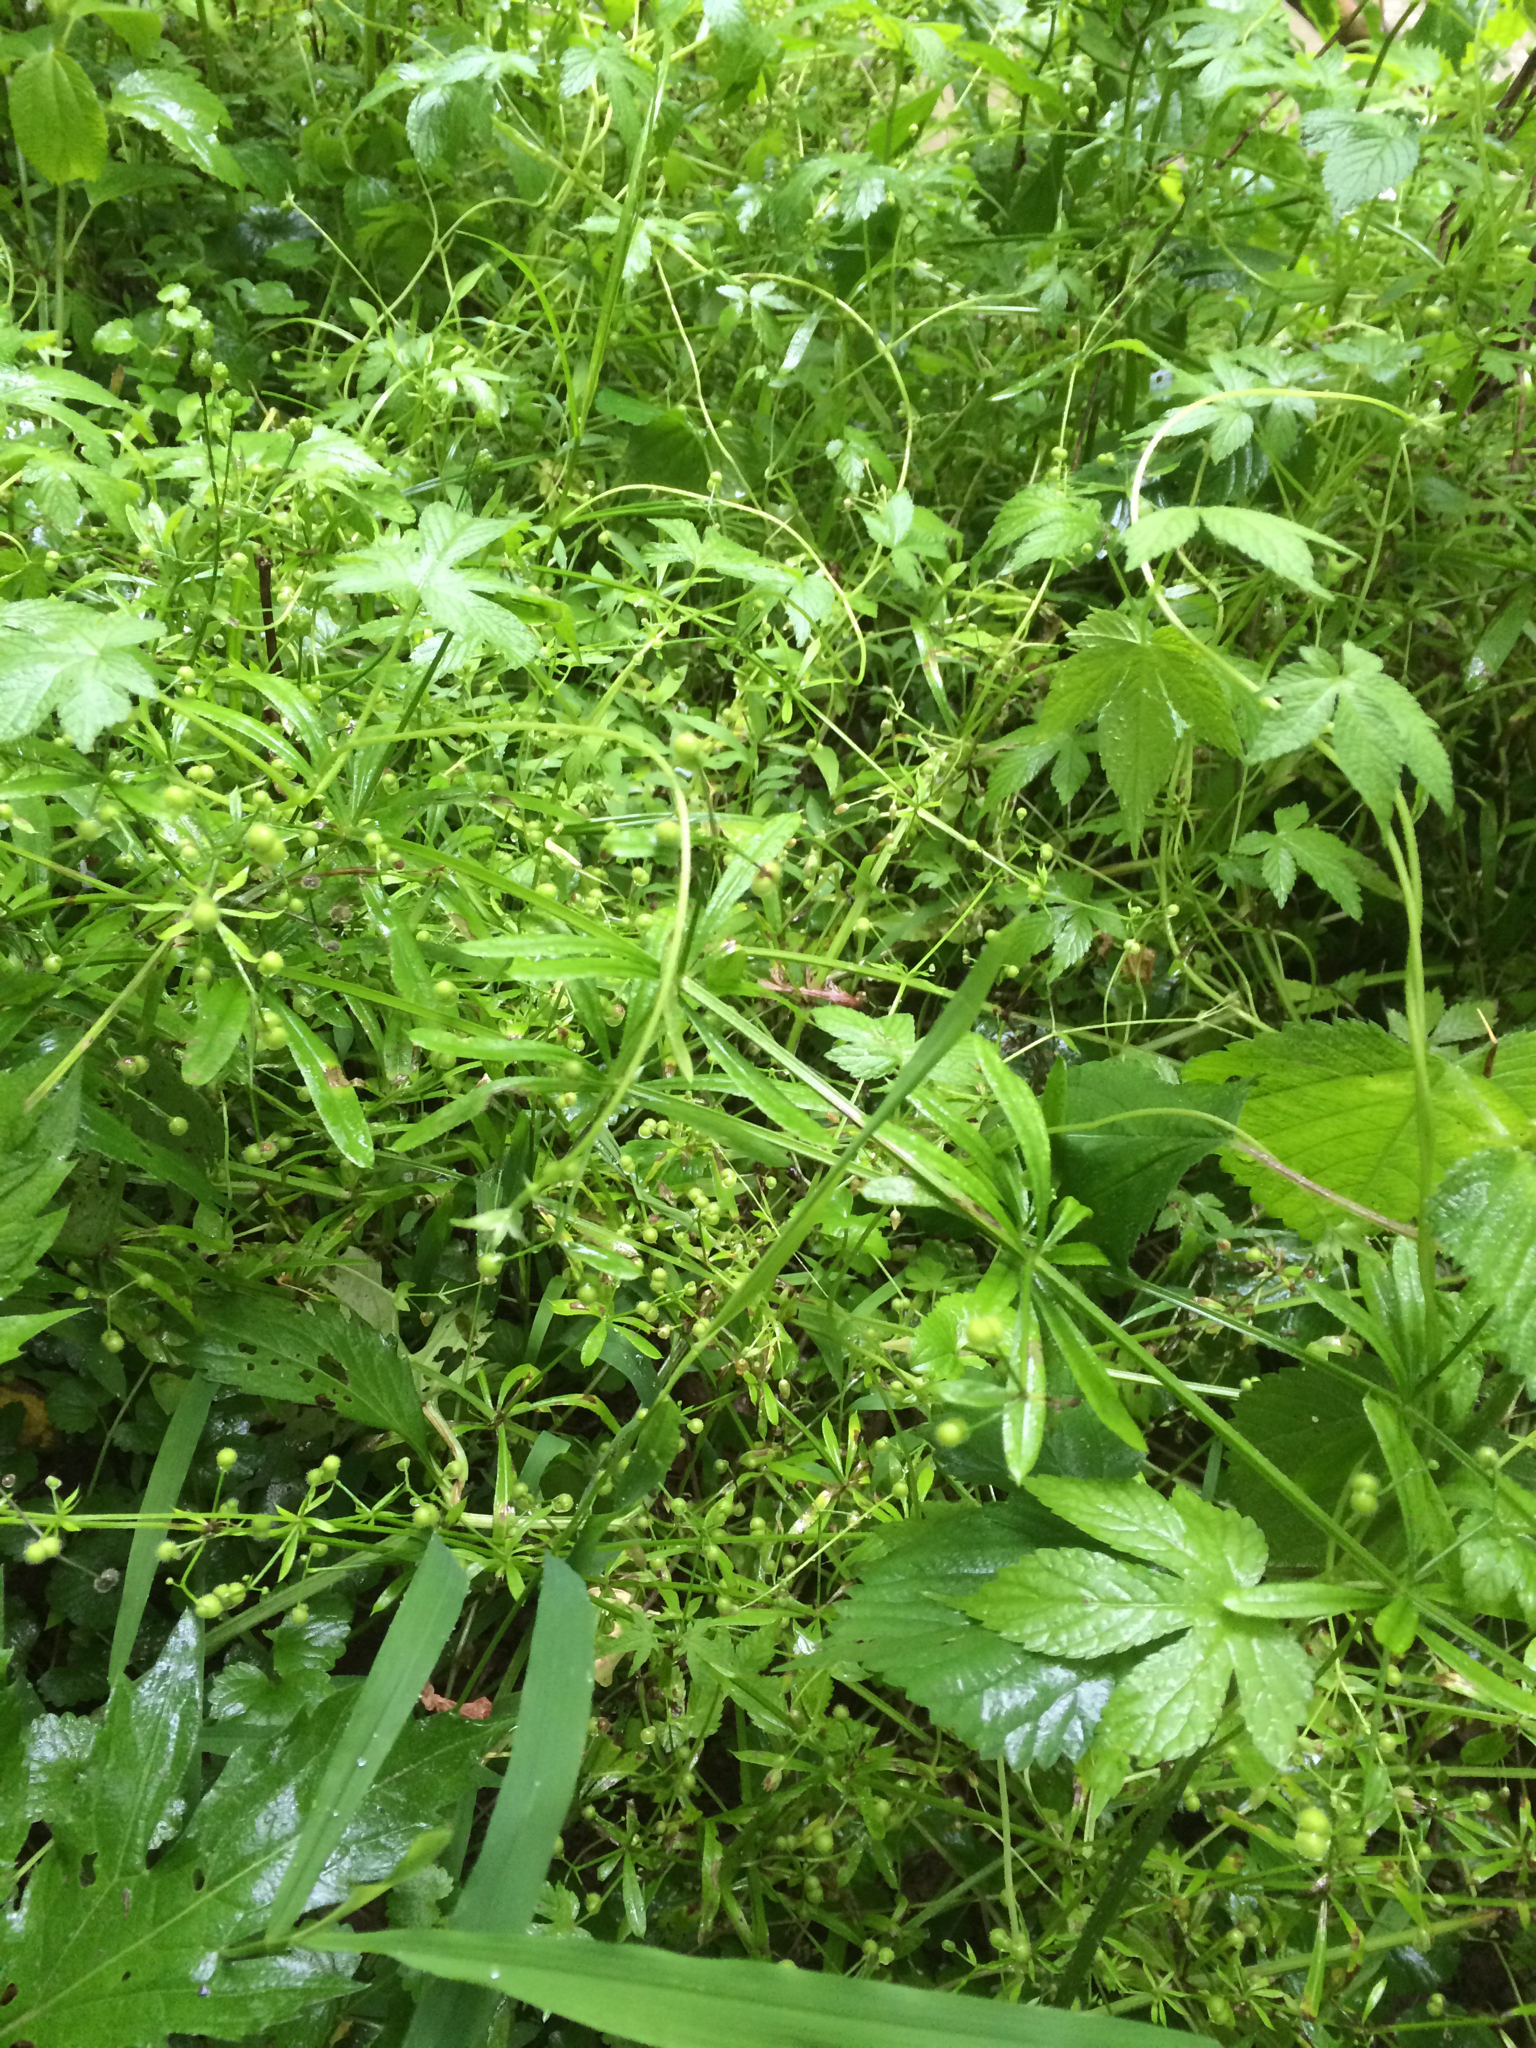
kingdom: Plantae
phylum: Tracheophyta
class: Magnoliopsida
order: Gentianales
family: Rubiaceae
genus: Galium
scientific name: Galium aparine
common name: Cleavers
